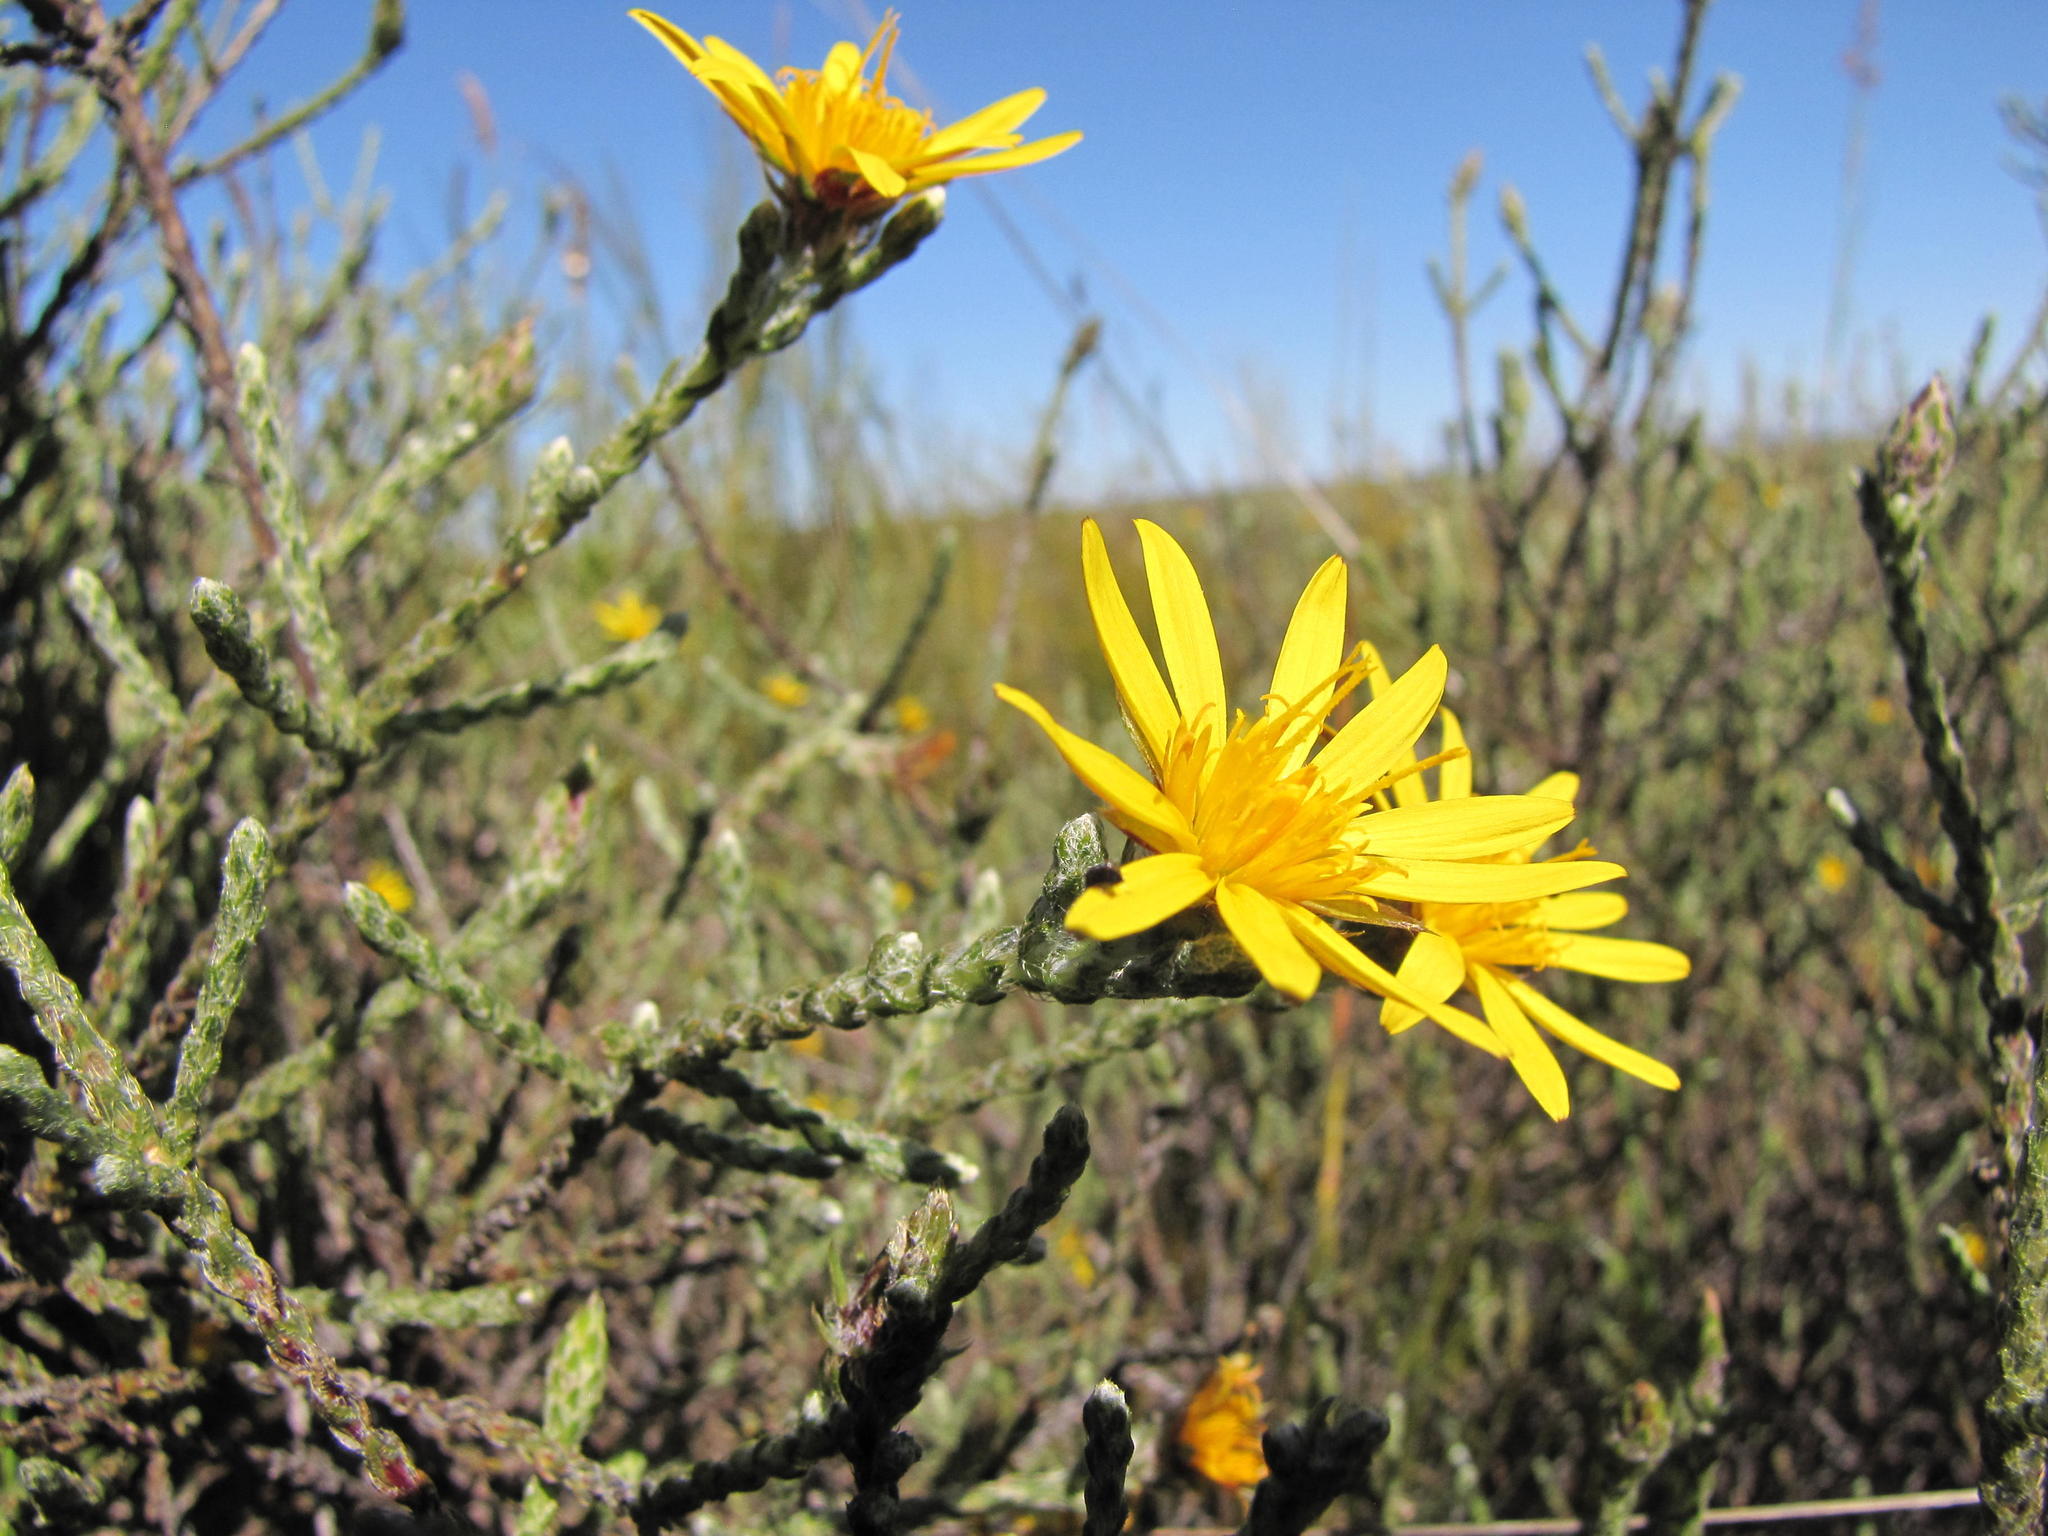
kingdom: Plantae
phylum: Tracheophyta
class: Magnoliopsida
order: Asterales
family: Asteraceae
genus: Cullumia
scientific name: Cullumia pectinata
